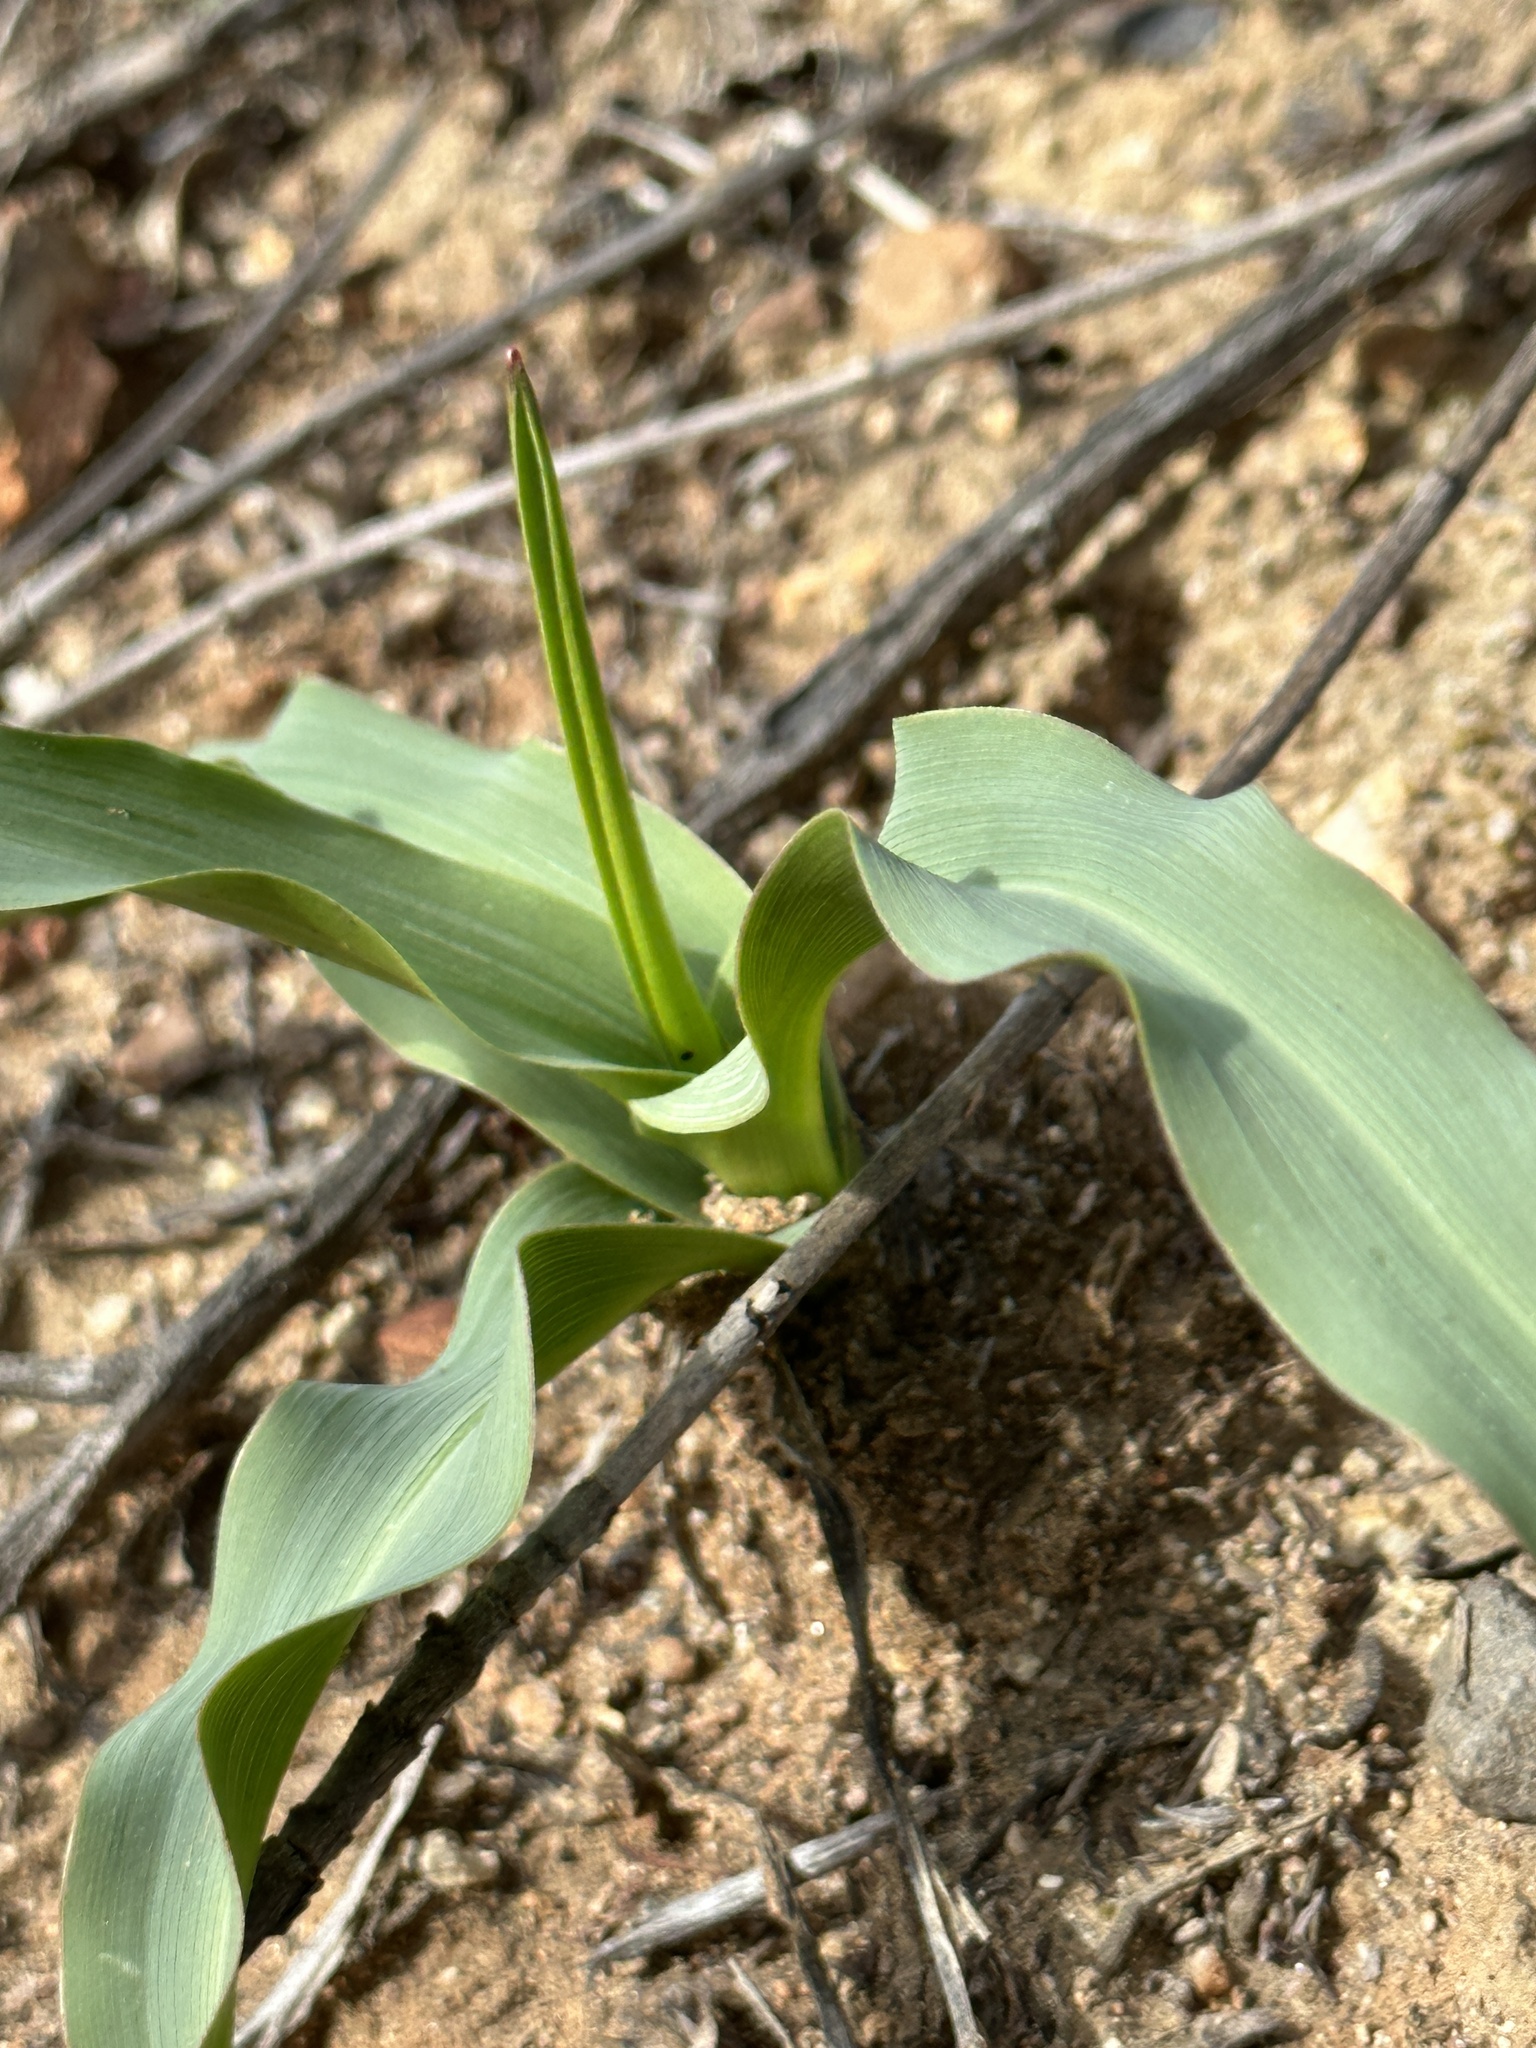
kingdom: Plantae
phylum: Tracheophyta
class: Liliopsida
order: Asparagales
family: Asparagaceae
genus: Chlorogalum
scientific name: Chlorogalum pomeridianum
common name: Amole
